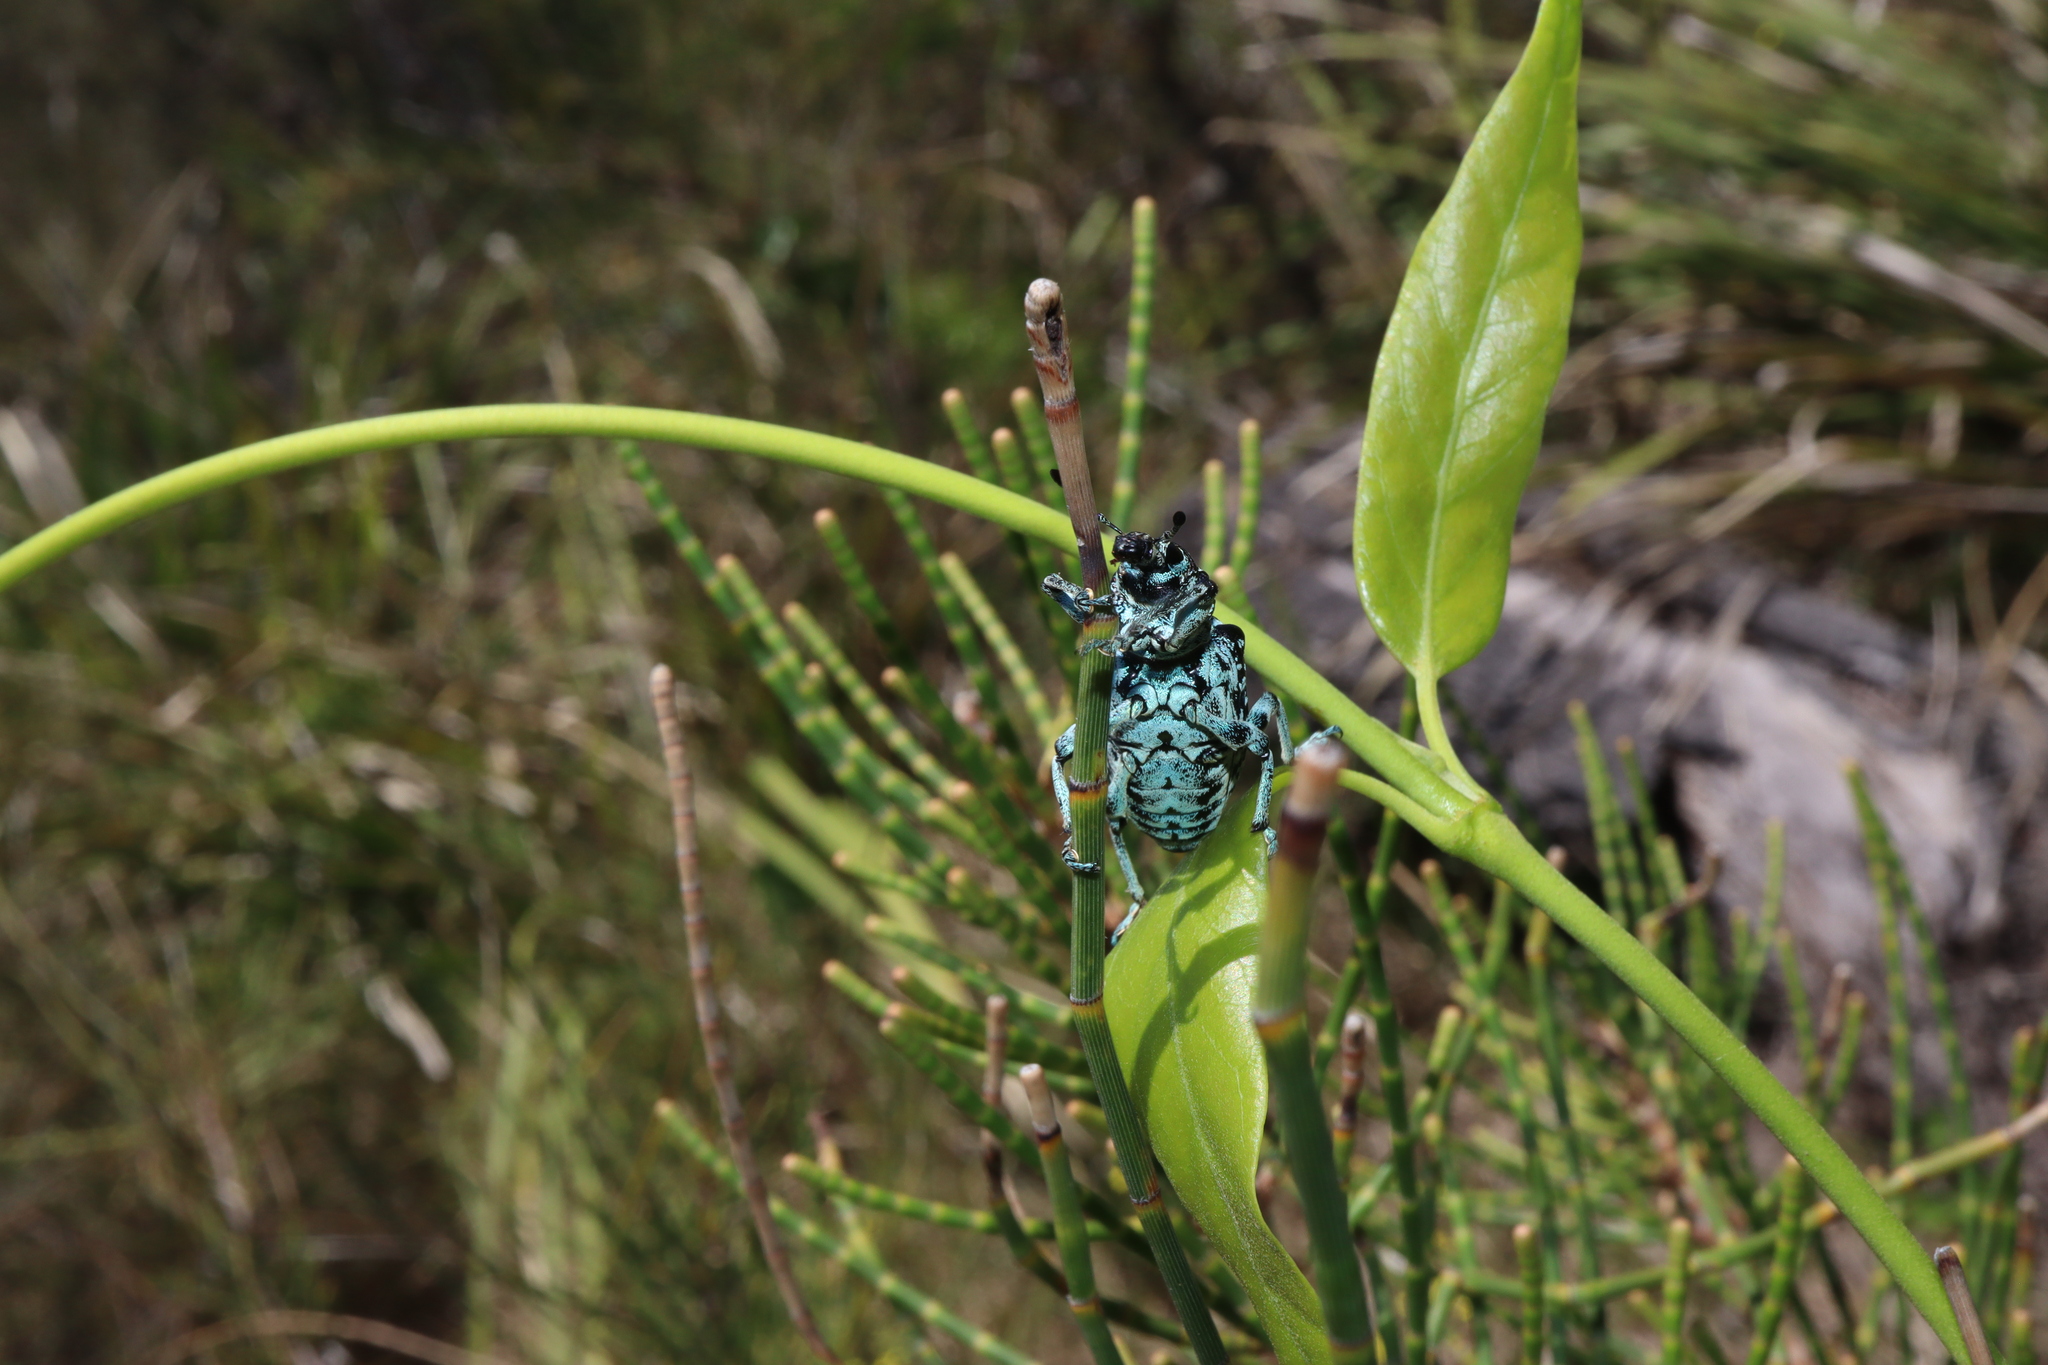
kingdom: Animalia
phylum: Arthropoda
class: Insecta
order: Coleoptera
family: Curculionidae
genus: Chrysolopus
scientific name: Chrysolopus spectabilis
